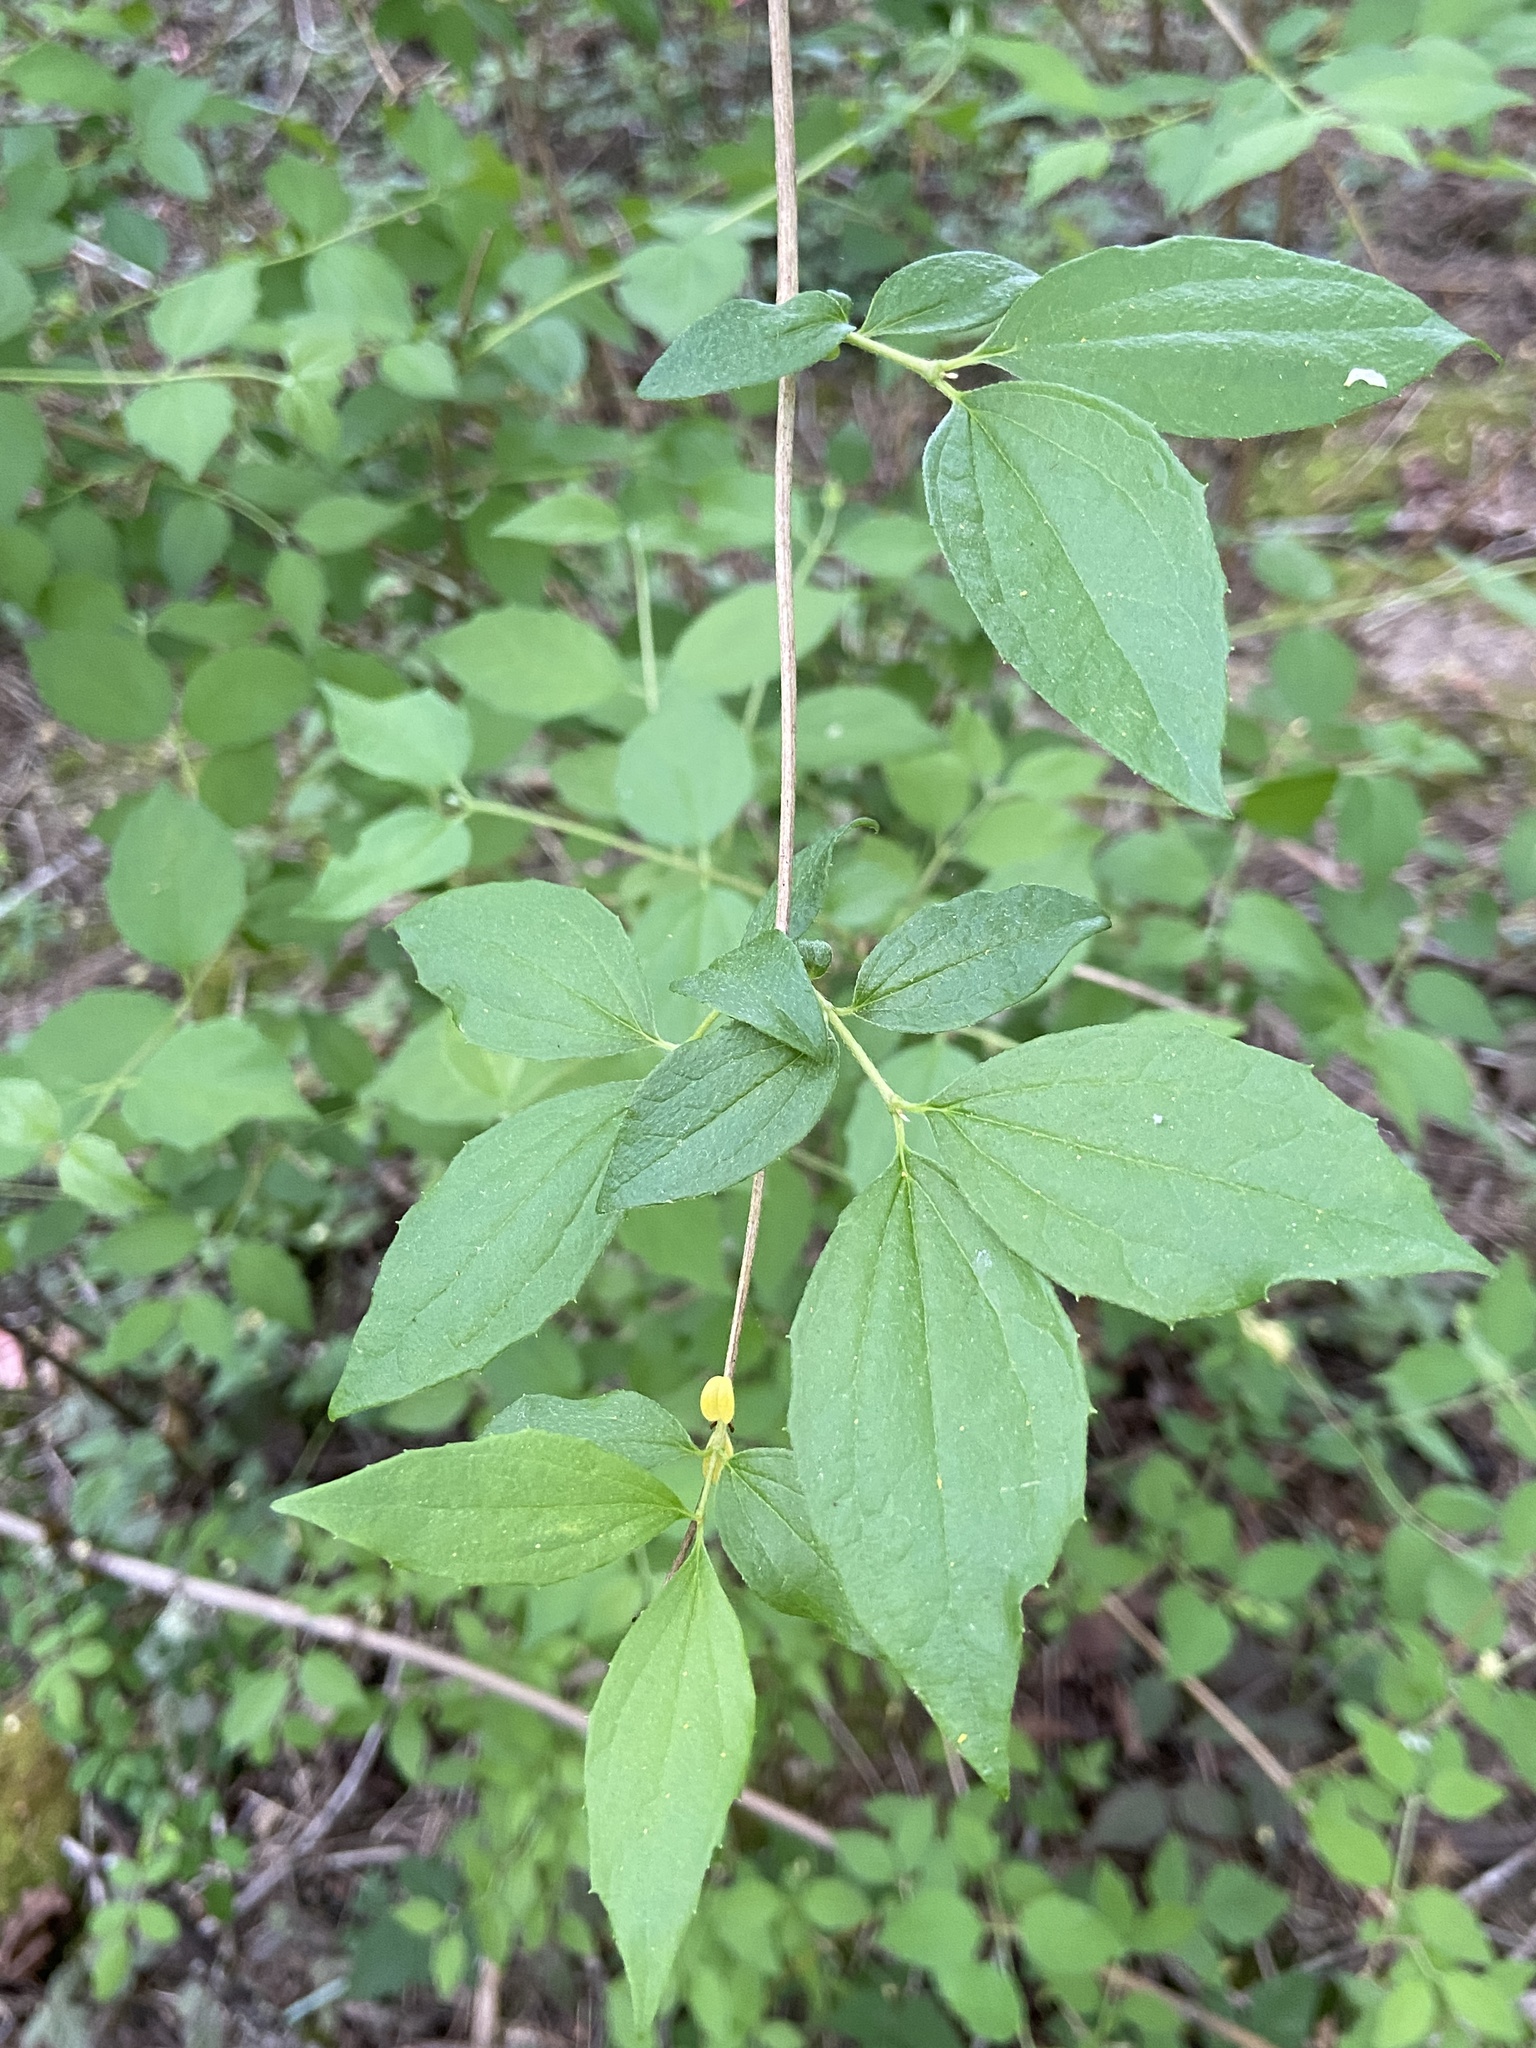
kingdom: Plantae
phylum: Tracheophyta
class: Magnoliopsida
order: Cornales
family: Hydrangeaceae
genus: Philadelphus
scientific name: Philadelphus lewisii
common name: Lewis's mock orange
